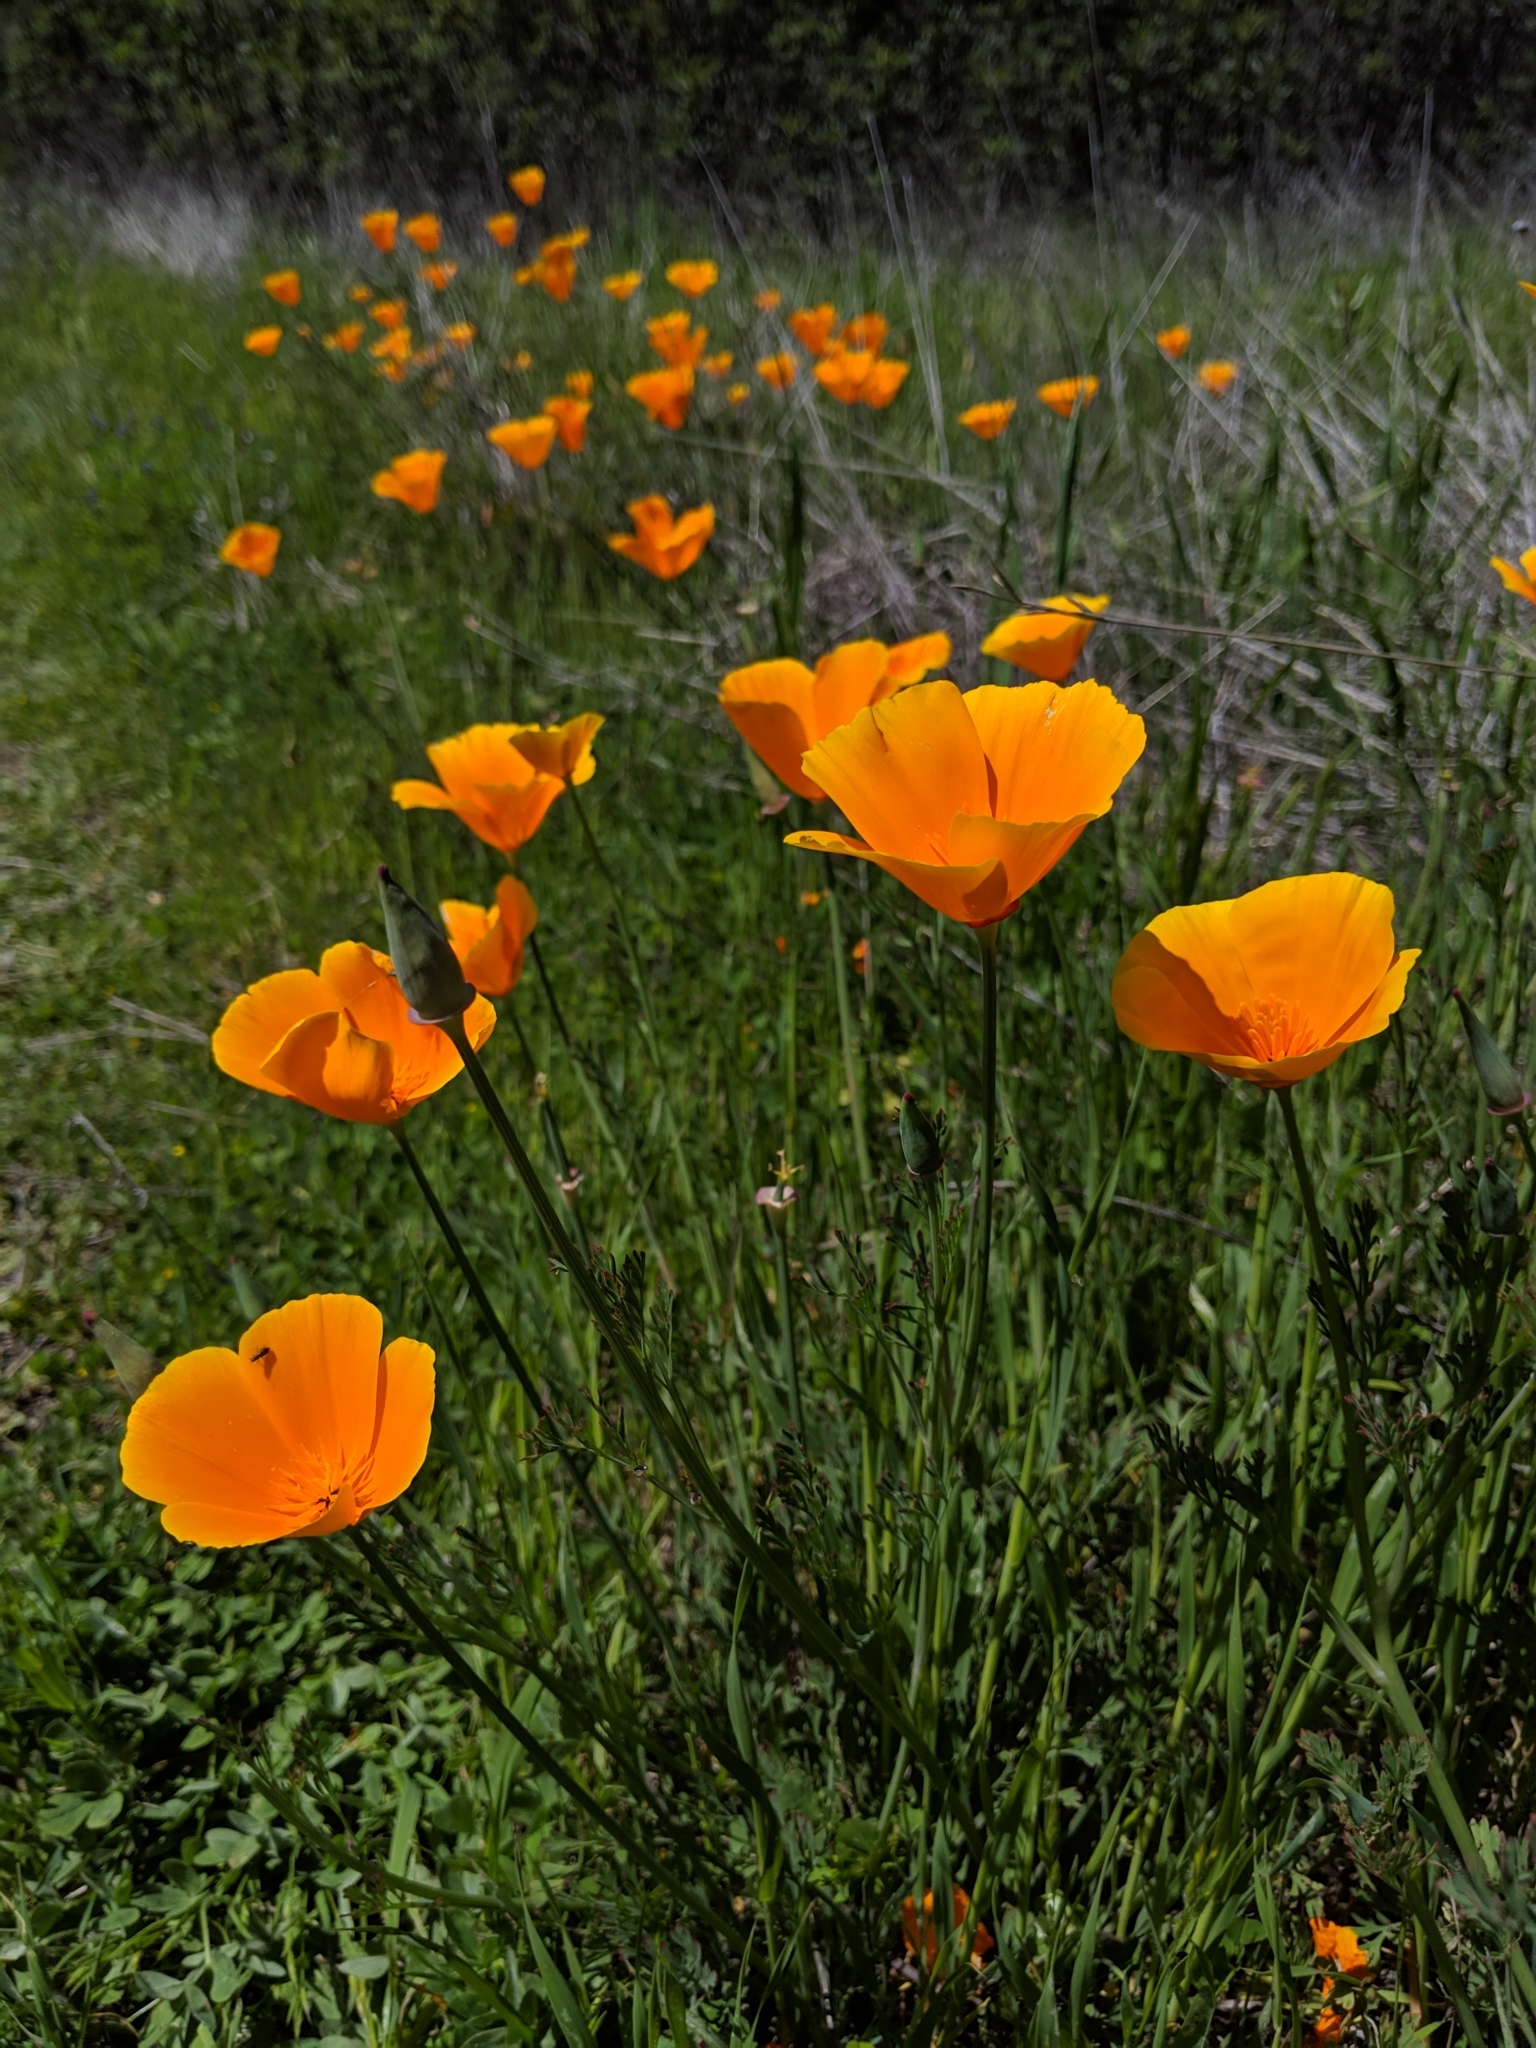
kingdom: Plantae
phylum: Tracheophyta
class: Magnoliopsida
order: Ranunculales
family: Papaveraceae
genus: Eschscholzia
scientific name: Eschscholzia californica
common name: California poppy
